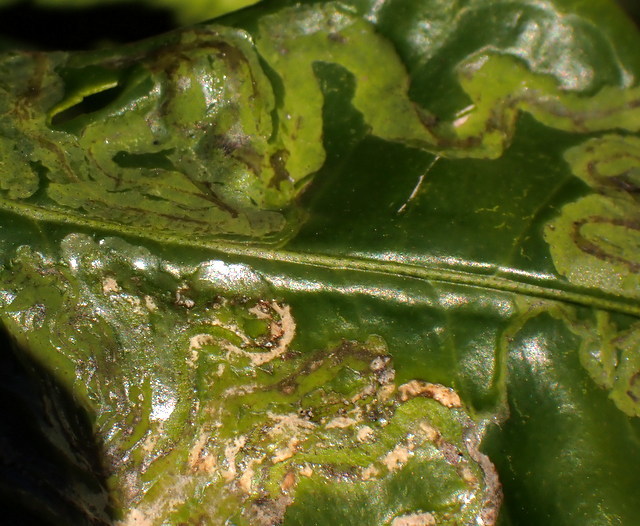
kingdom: Animalia
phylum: Arthropoda
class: Insecta
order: Lepidoptera
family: Gracillariidae
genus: Phyllocnistis
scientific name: Phyllocnistis citrella
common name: Citrus leafminer
